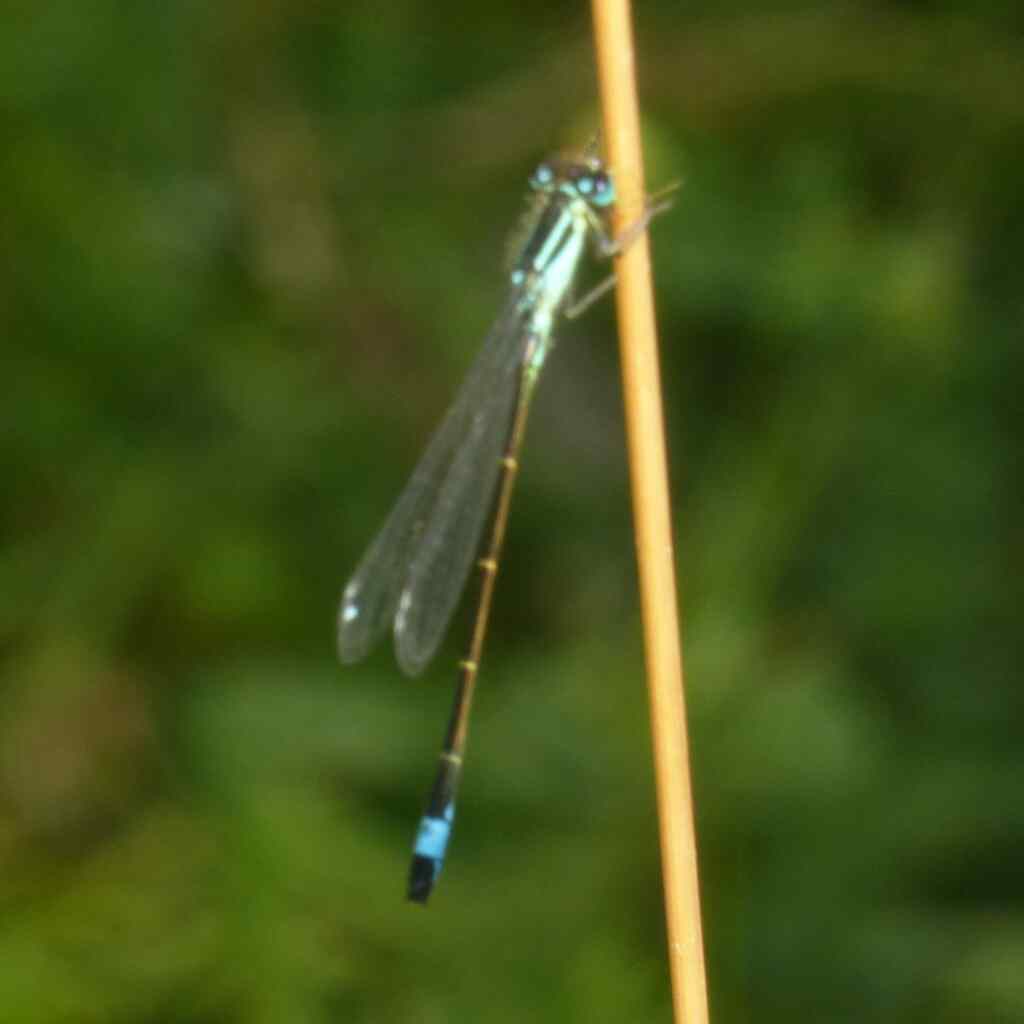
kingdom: Animalia
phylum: Arthropoda
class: Insecta
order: Odonata
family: Coenagrionidae
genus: Ischnura
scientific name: Ischnura elegans
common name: Blue-tailed damselfly
